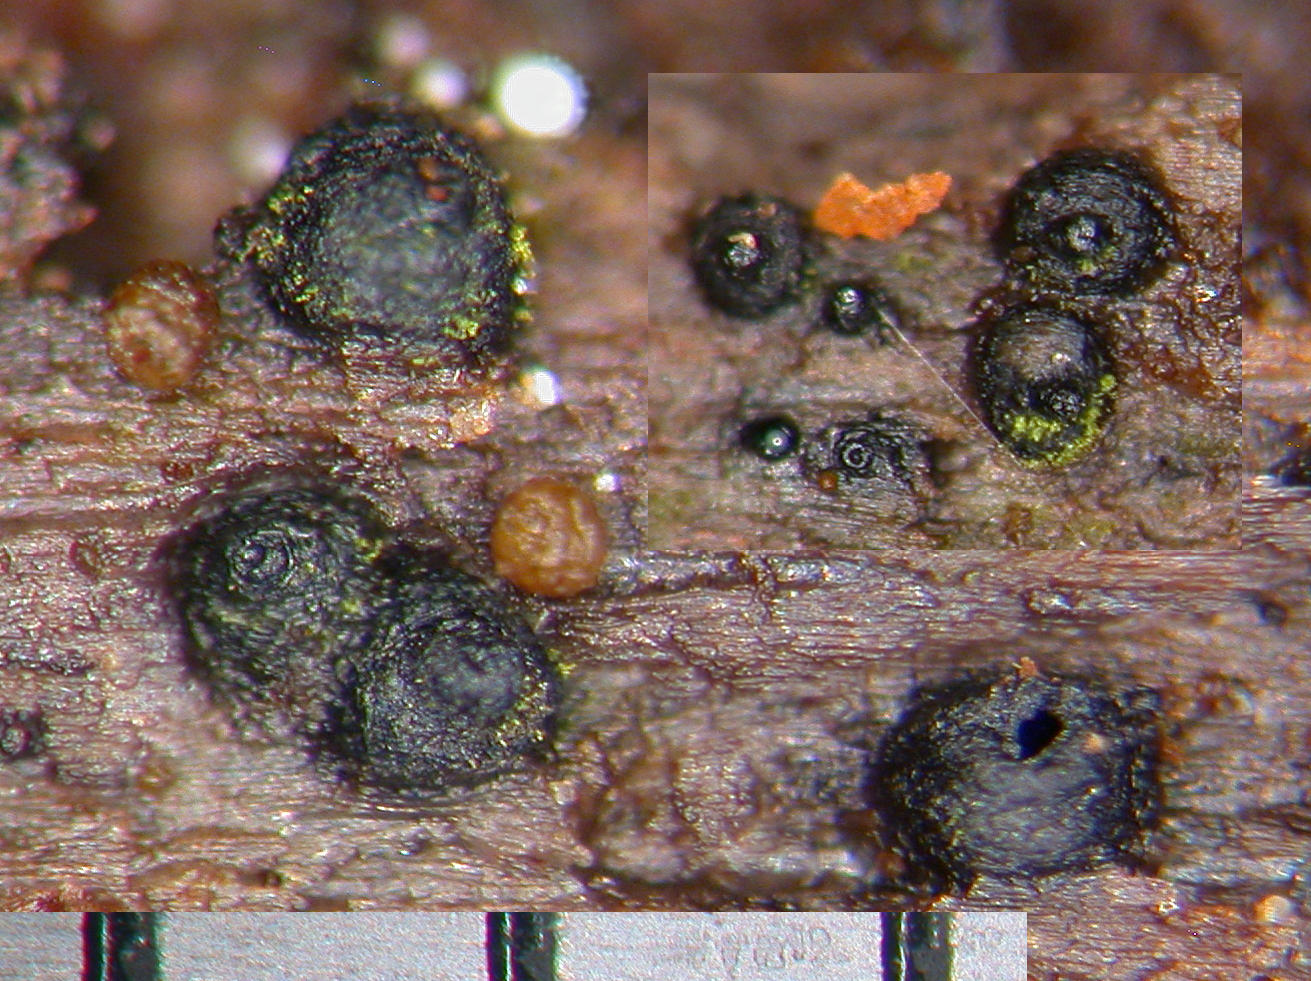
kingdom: Fungi
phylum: Ascomycota
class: Dothideomycetes
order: Pleosporales
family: Kirschsteiniotheliaceae
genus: Kirschsteiniothelia
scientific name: Kirschsteiniothelia atra
